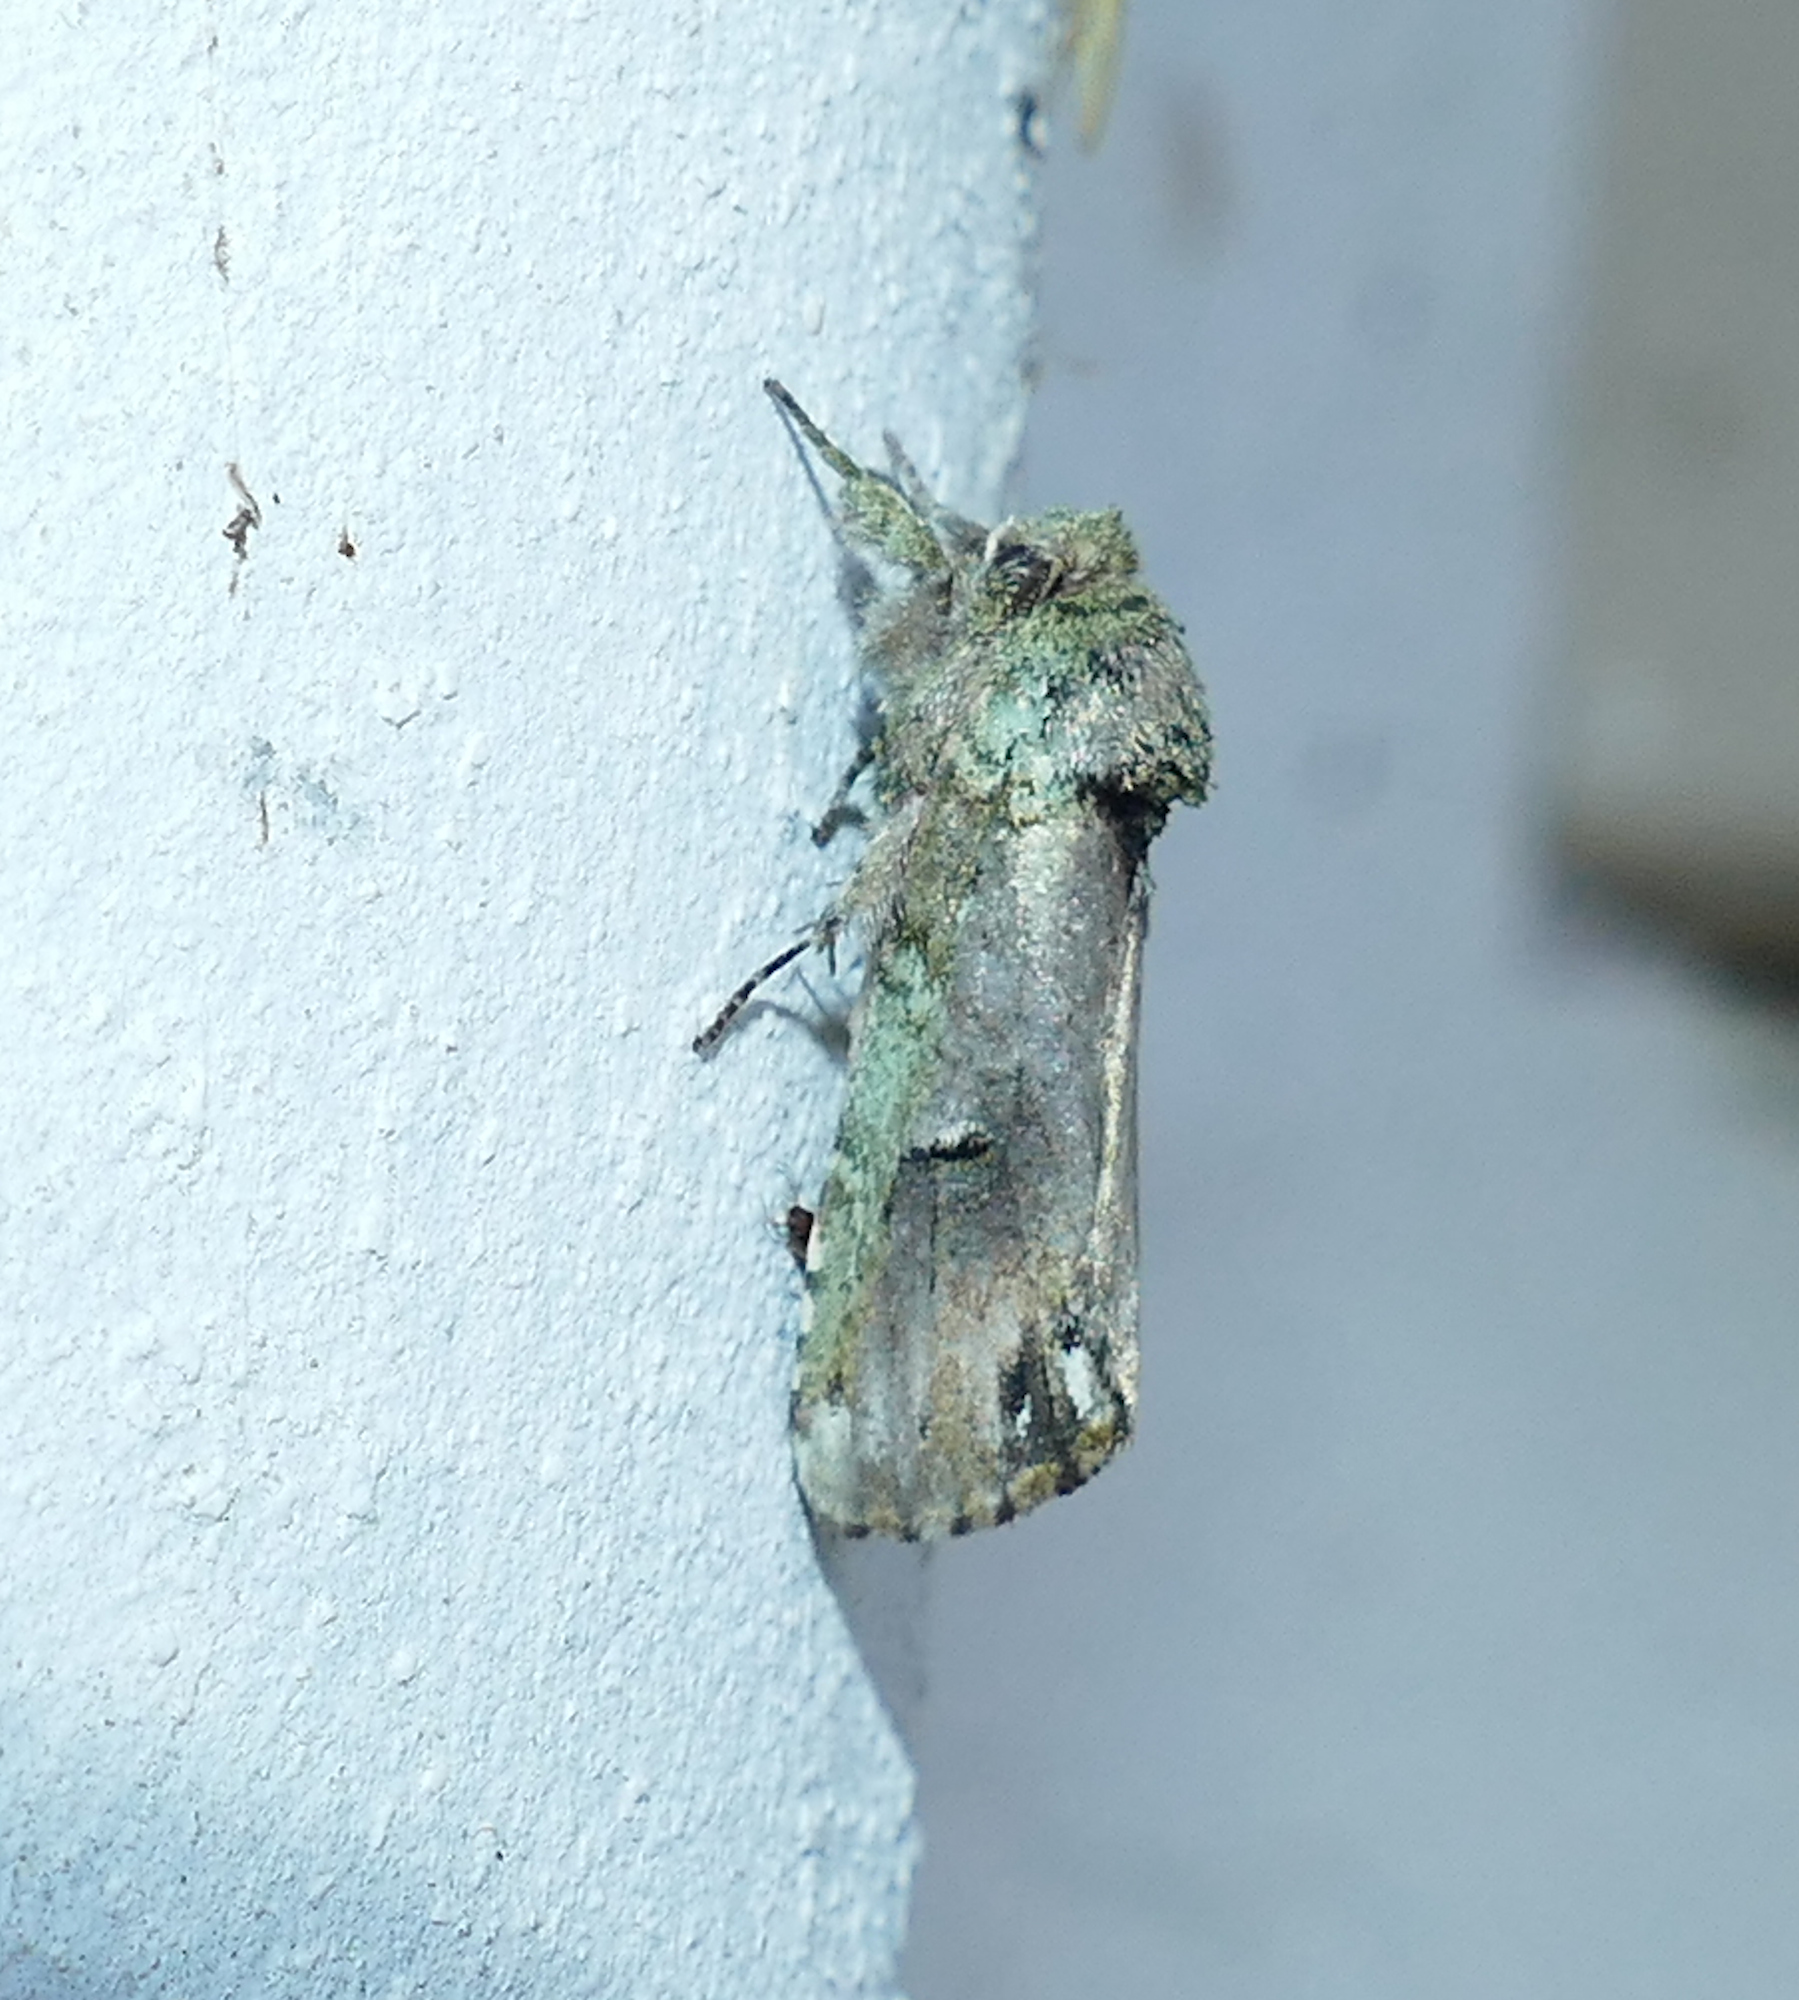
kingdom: Animalia
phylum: Arthropoda
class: Insecta
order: Lepidoptera
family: Notodontidae
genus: Schizura
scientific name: Schizura
